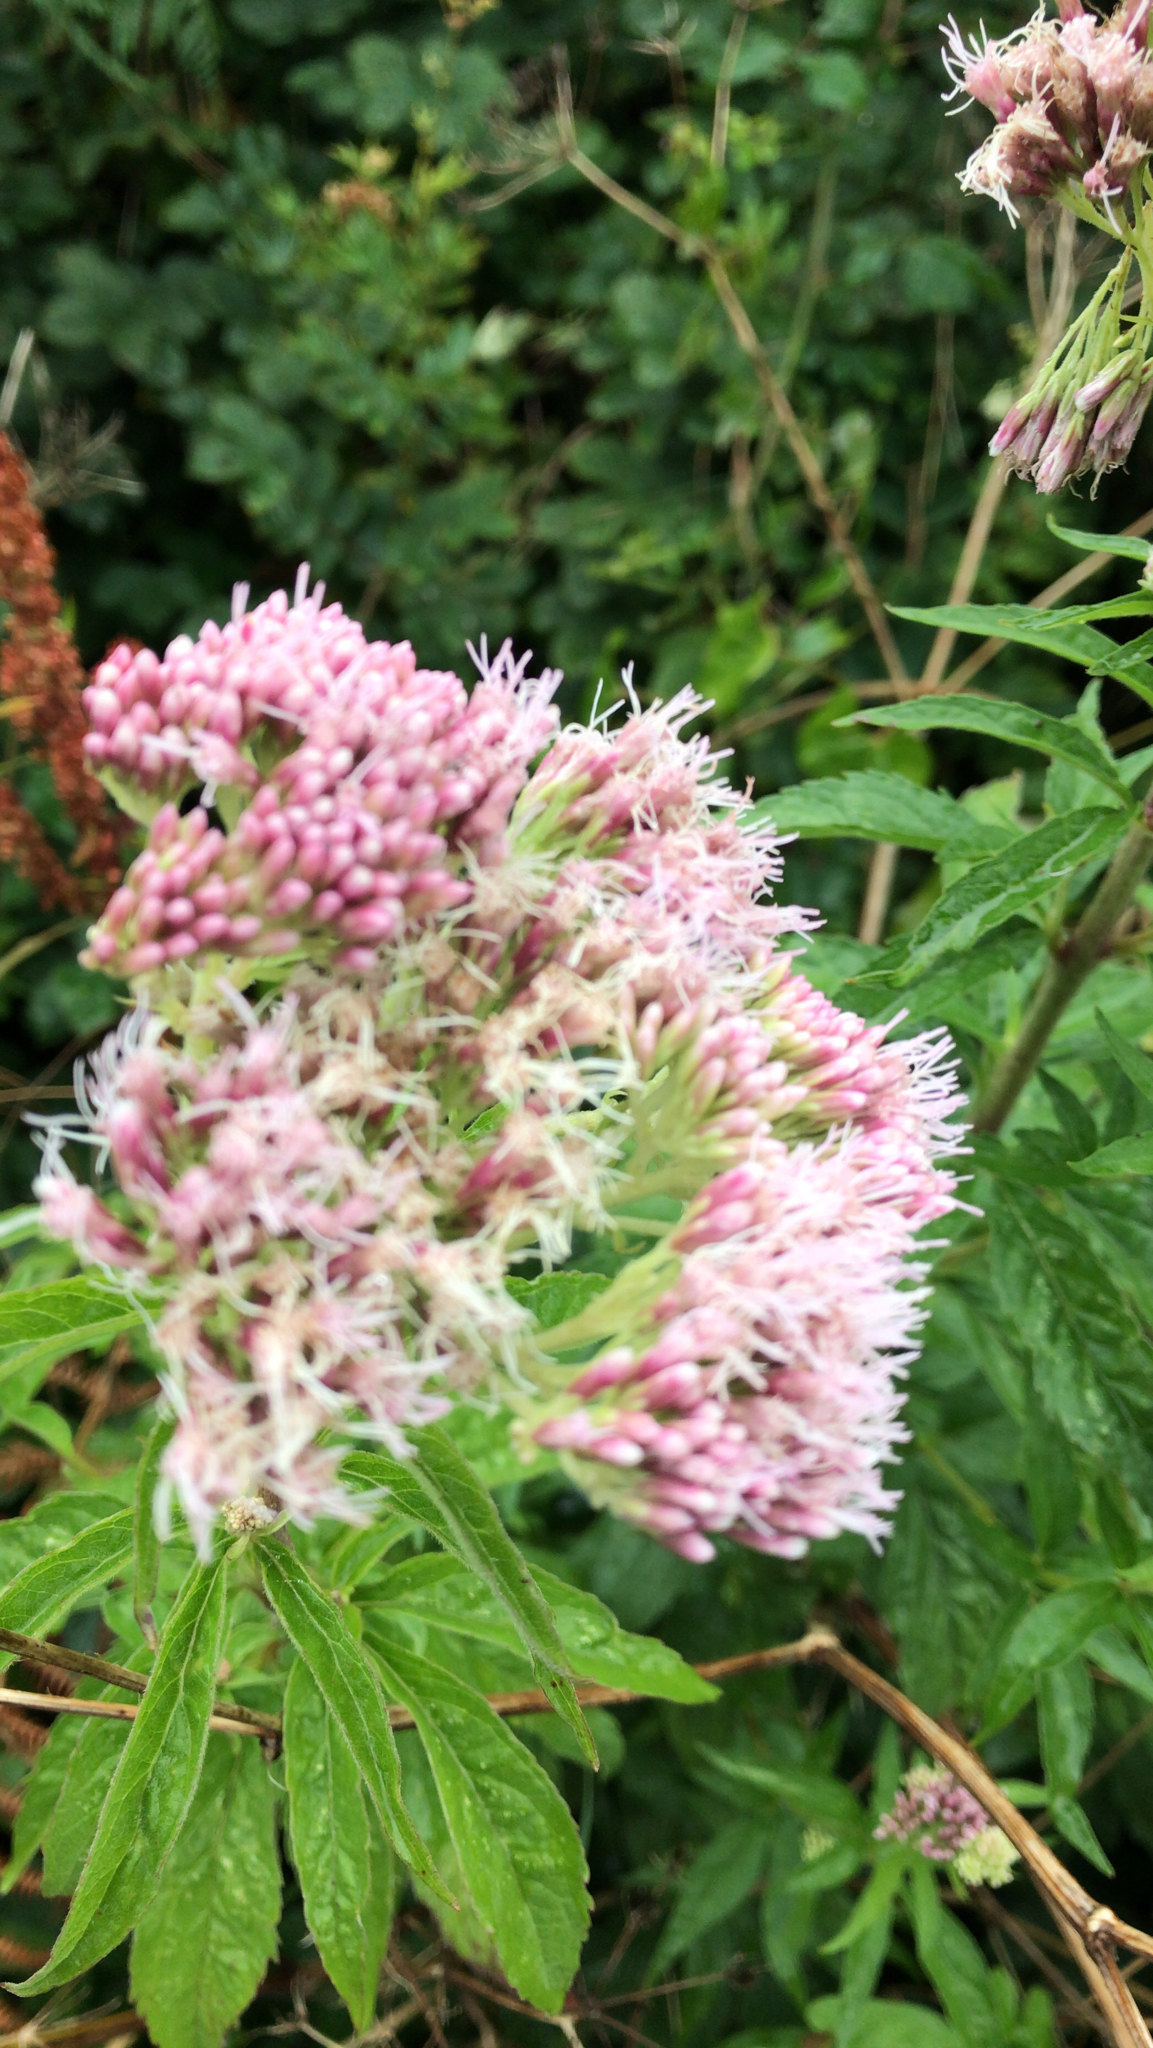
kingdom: Plantae
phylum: Tracheophyta
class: Magnoliopsida
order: Asterales
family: Asteraceae
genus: Eupatorium
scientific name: Eupatorium cannabinum
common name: Hemp-agrimony
